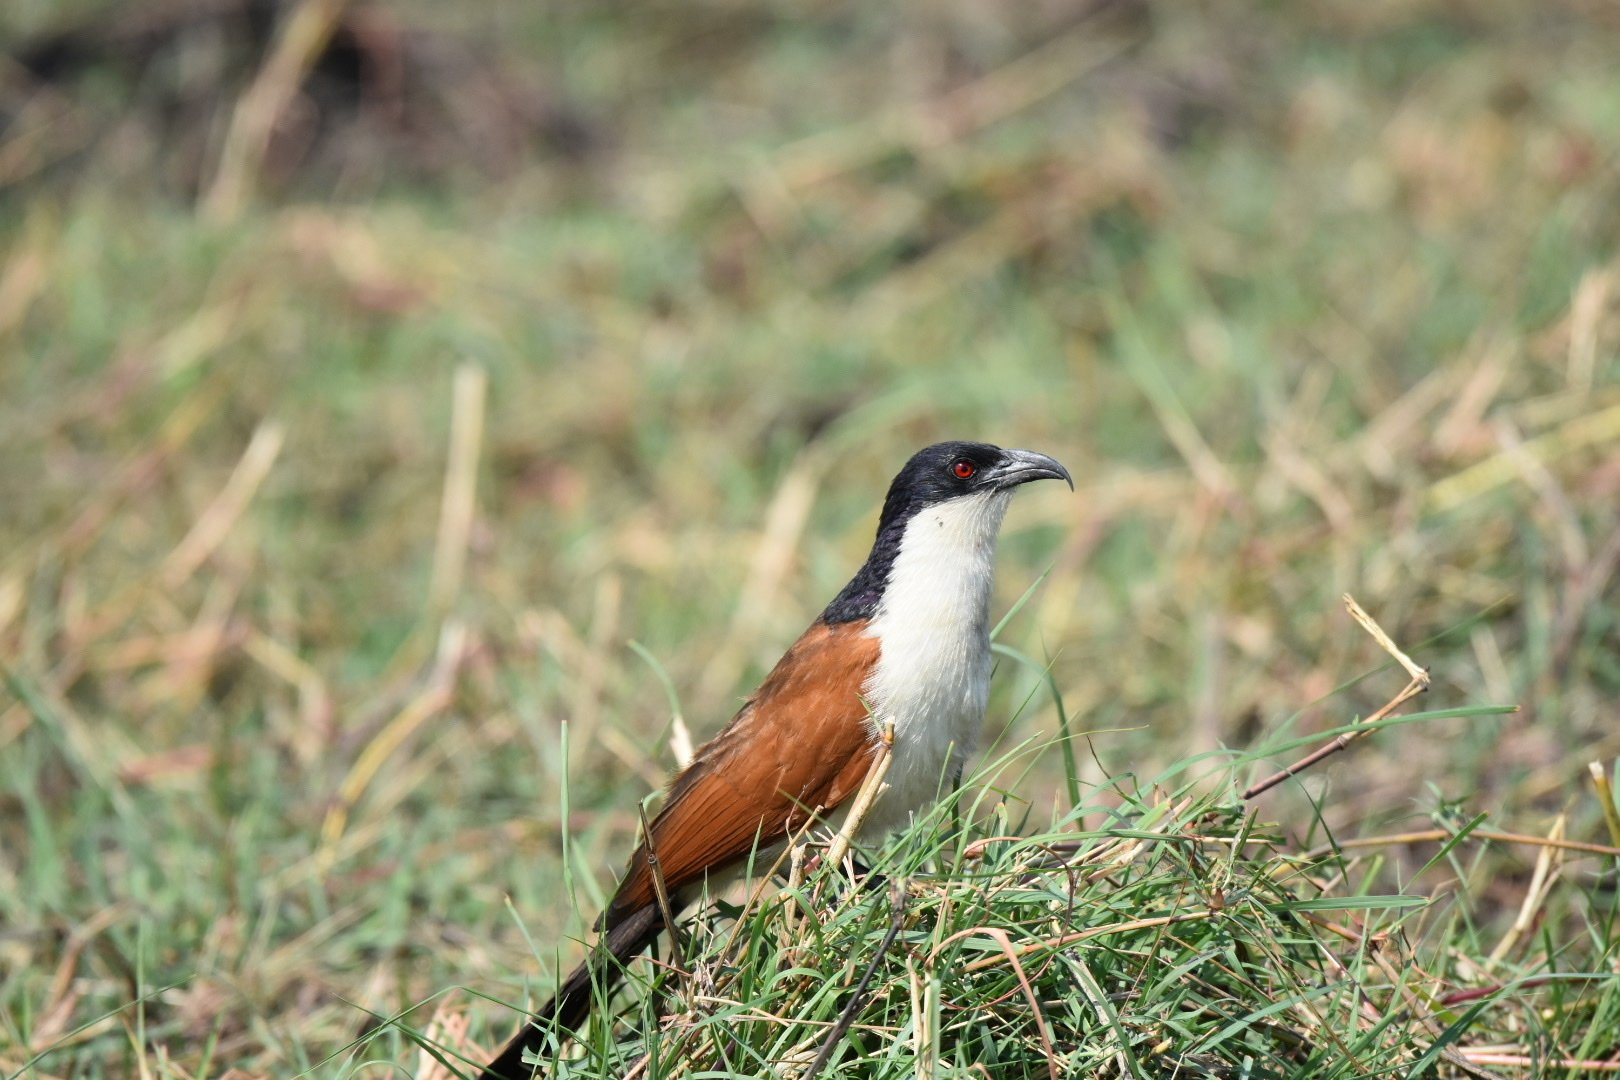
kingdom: Animalia
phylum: Chordata
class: Aves
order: Cuculiformes
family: Cuculidae
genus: Centropus
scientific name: Centropus cupreicaudus
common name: Coppery-tailed coucal
